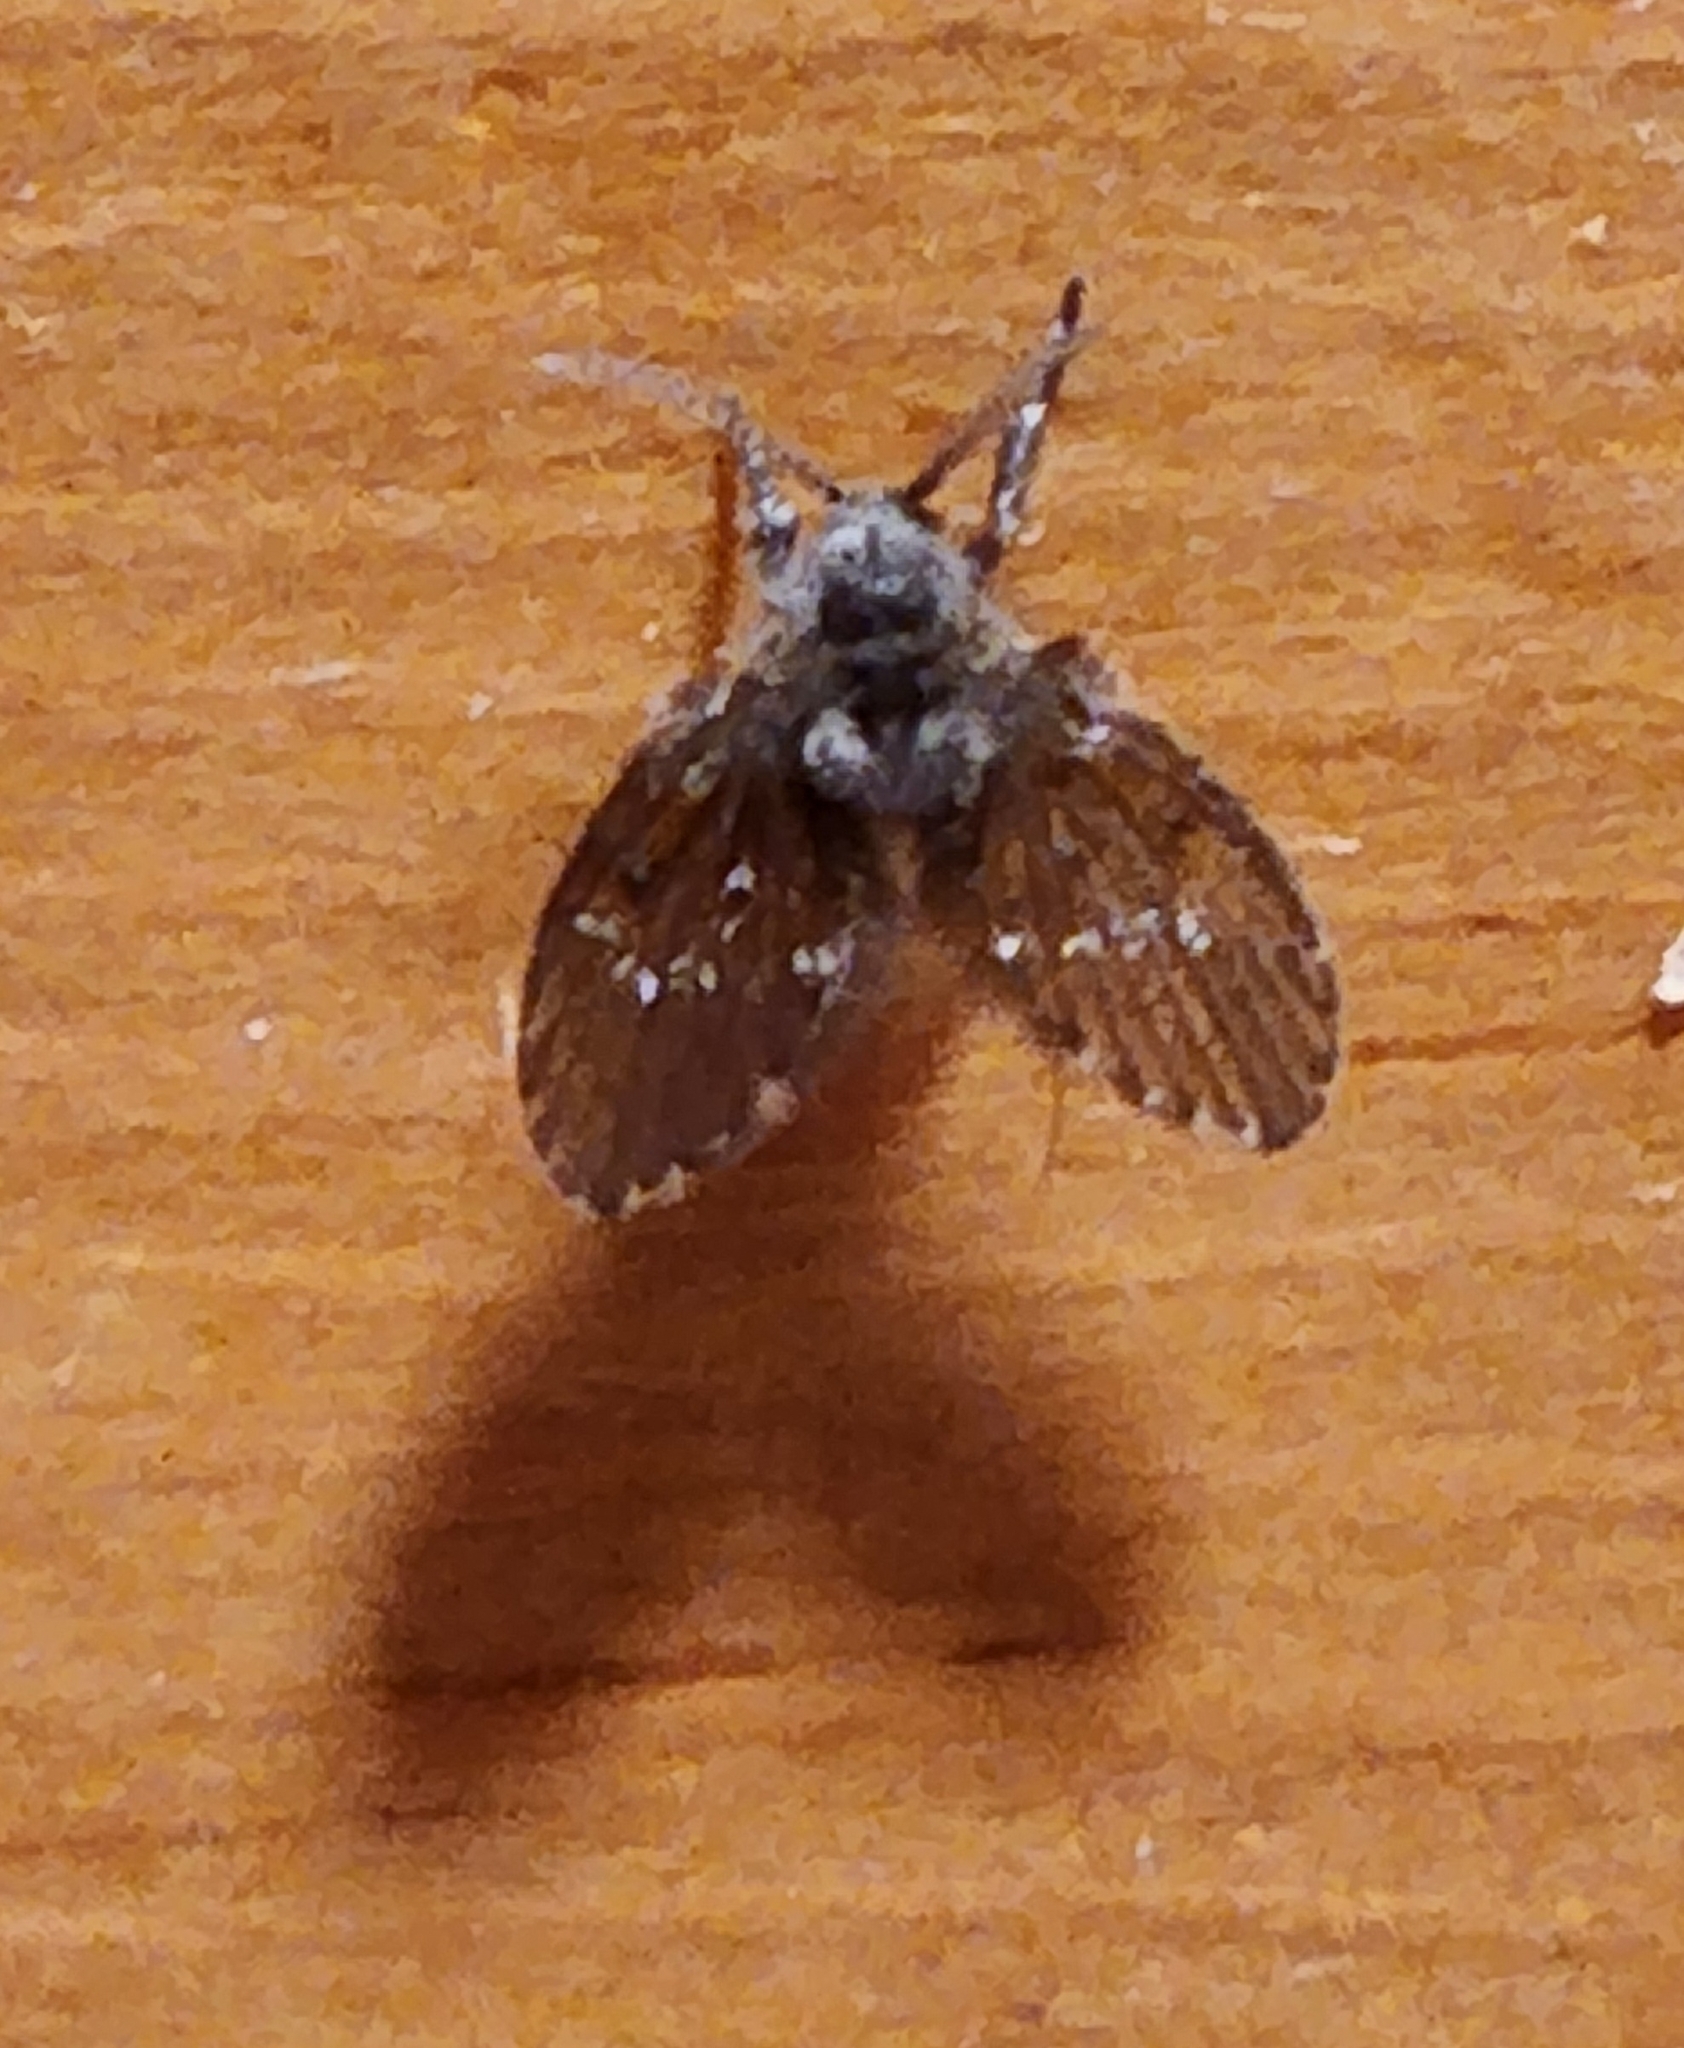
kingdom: Animalia
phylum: Arthropoda
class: Insecta
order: Diptera
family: Psychodidae
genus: Clogmia
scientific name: Clogmia albipunctatus
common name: White-spotted moth fly
